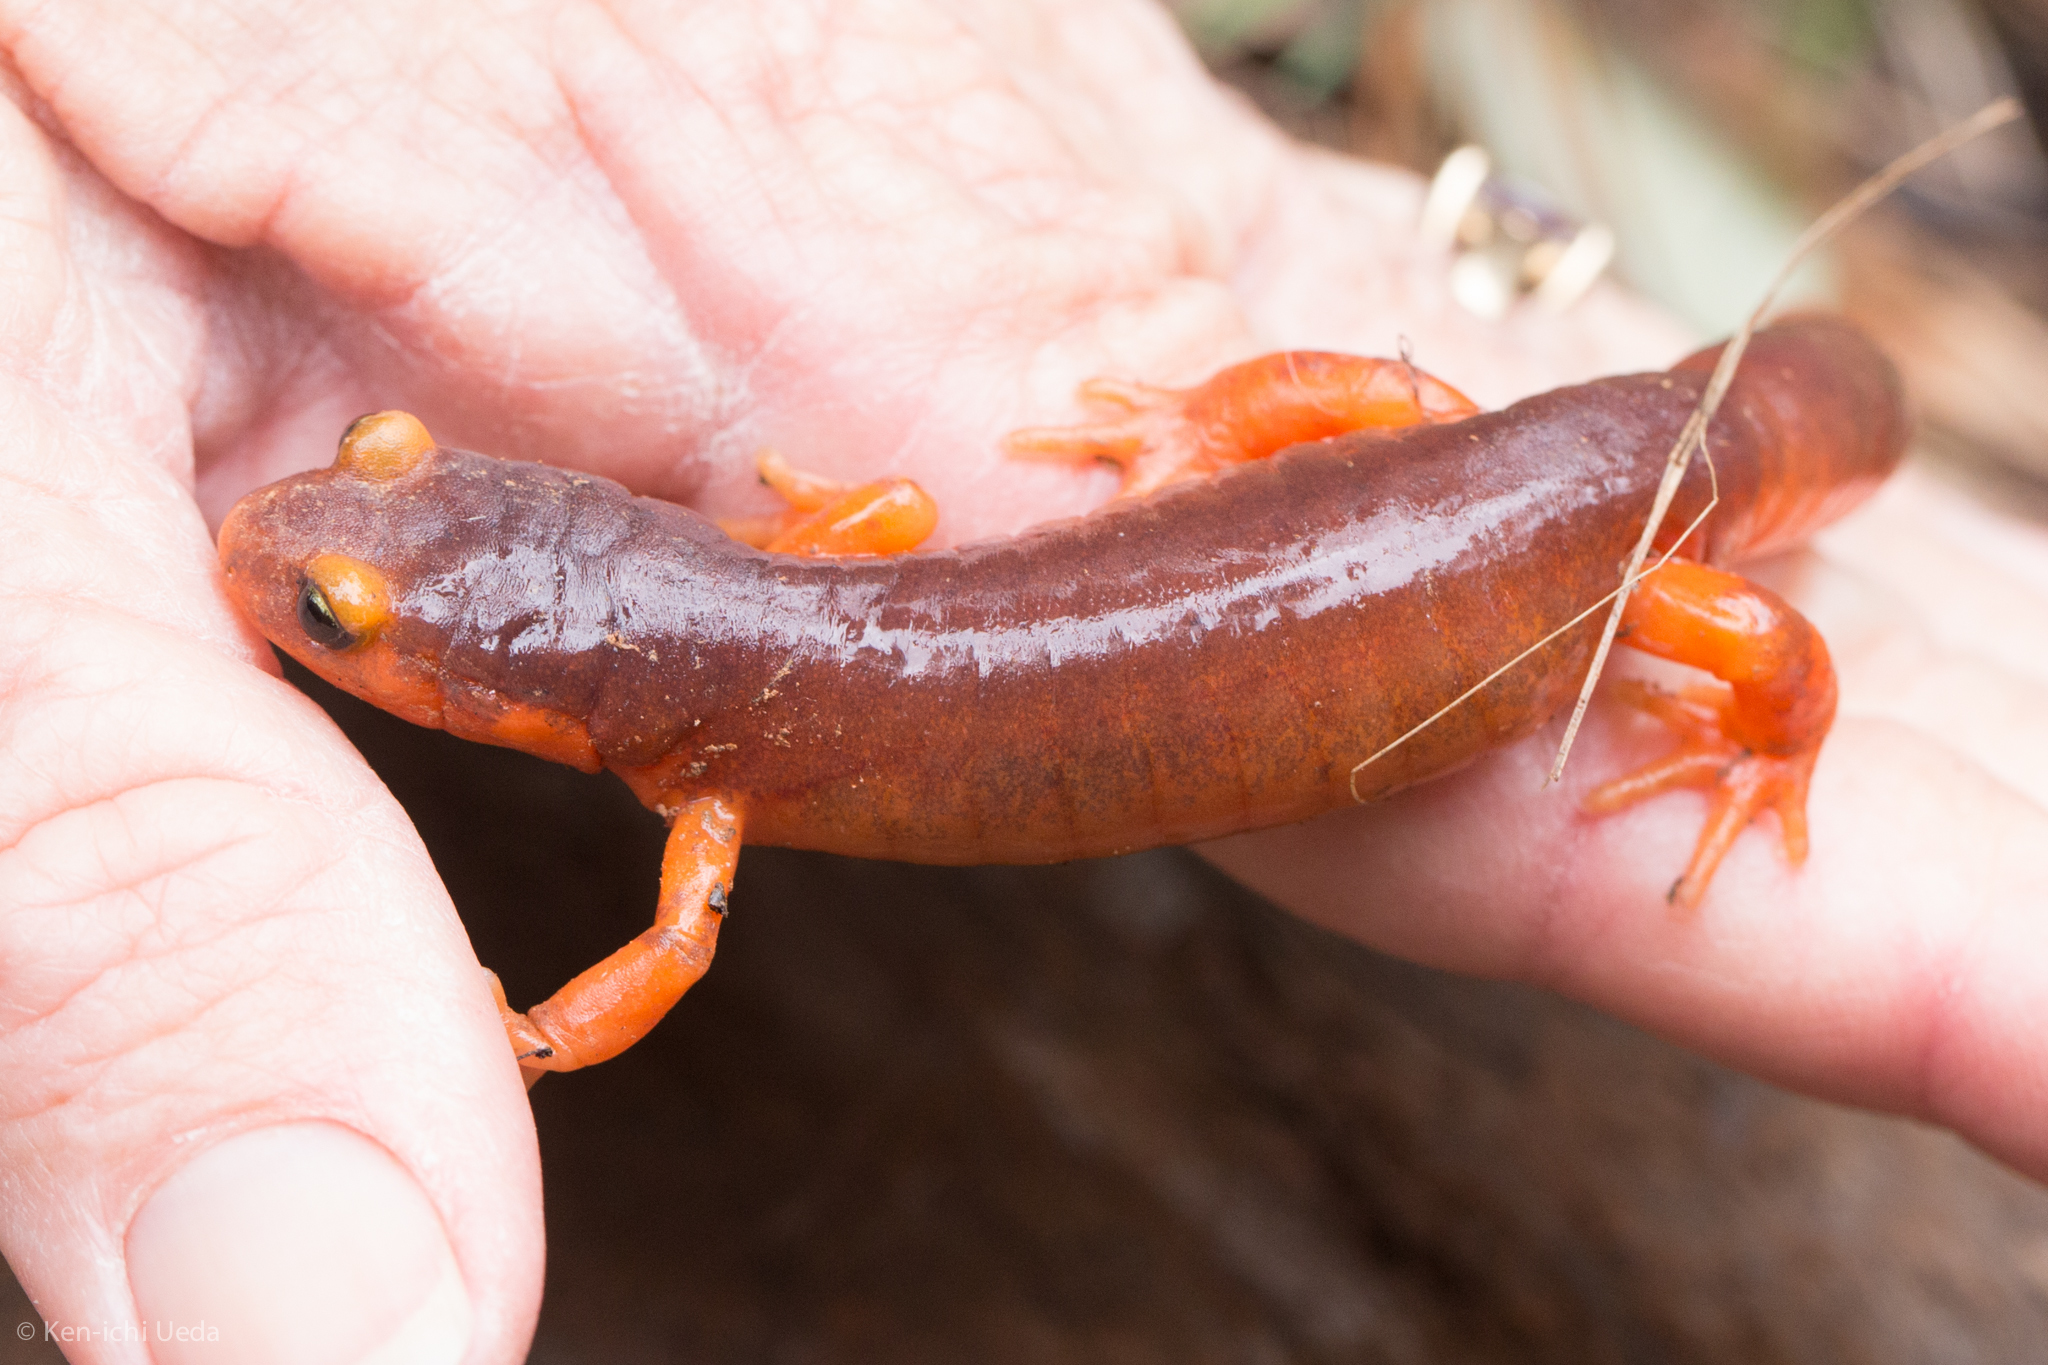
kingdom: Animalia
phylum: Chordata
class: Amphibia
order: Caudata
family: Plethodontidae
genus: Ensatina
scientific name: Ensatina eschscholtzii
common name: Ensatina
